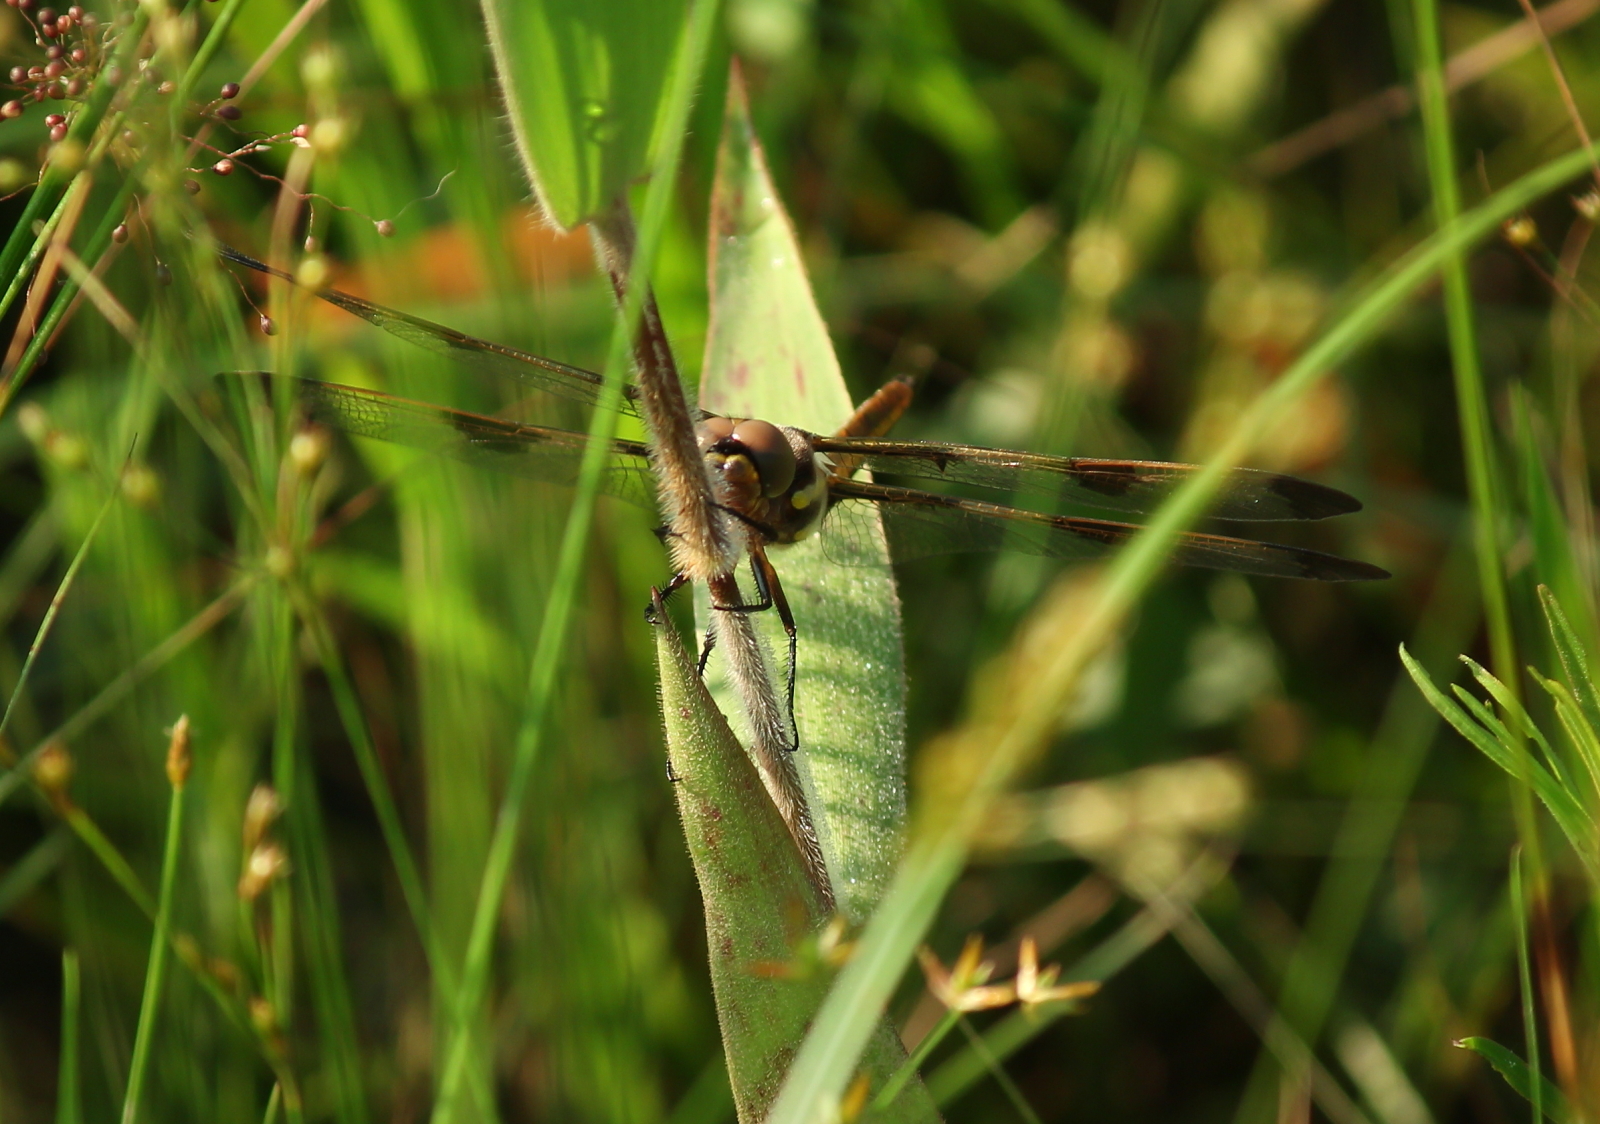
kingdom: Animalia
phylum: Arthropoda
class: Insecta
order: Odonata
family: Libellulidae
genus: Libellula
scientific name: Libellula pulchella
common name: Twelve-spotted skimmer
